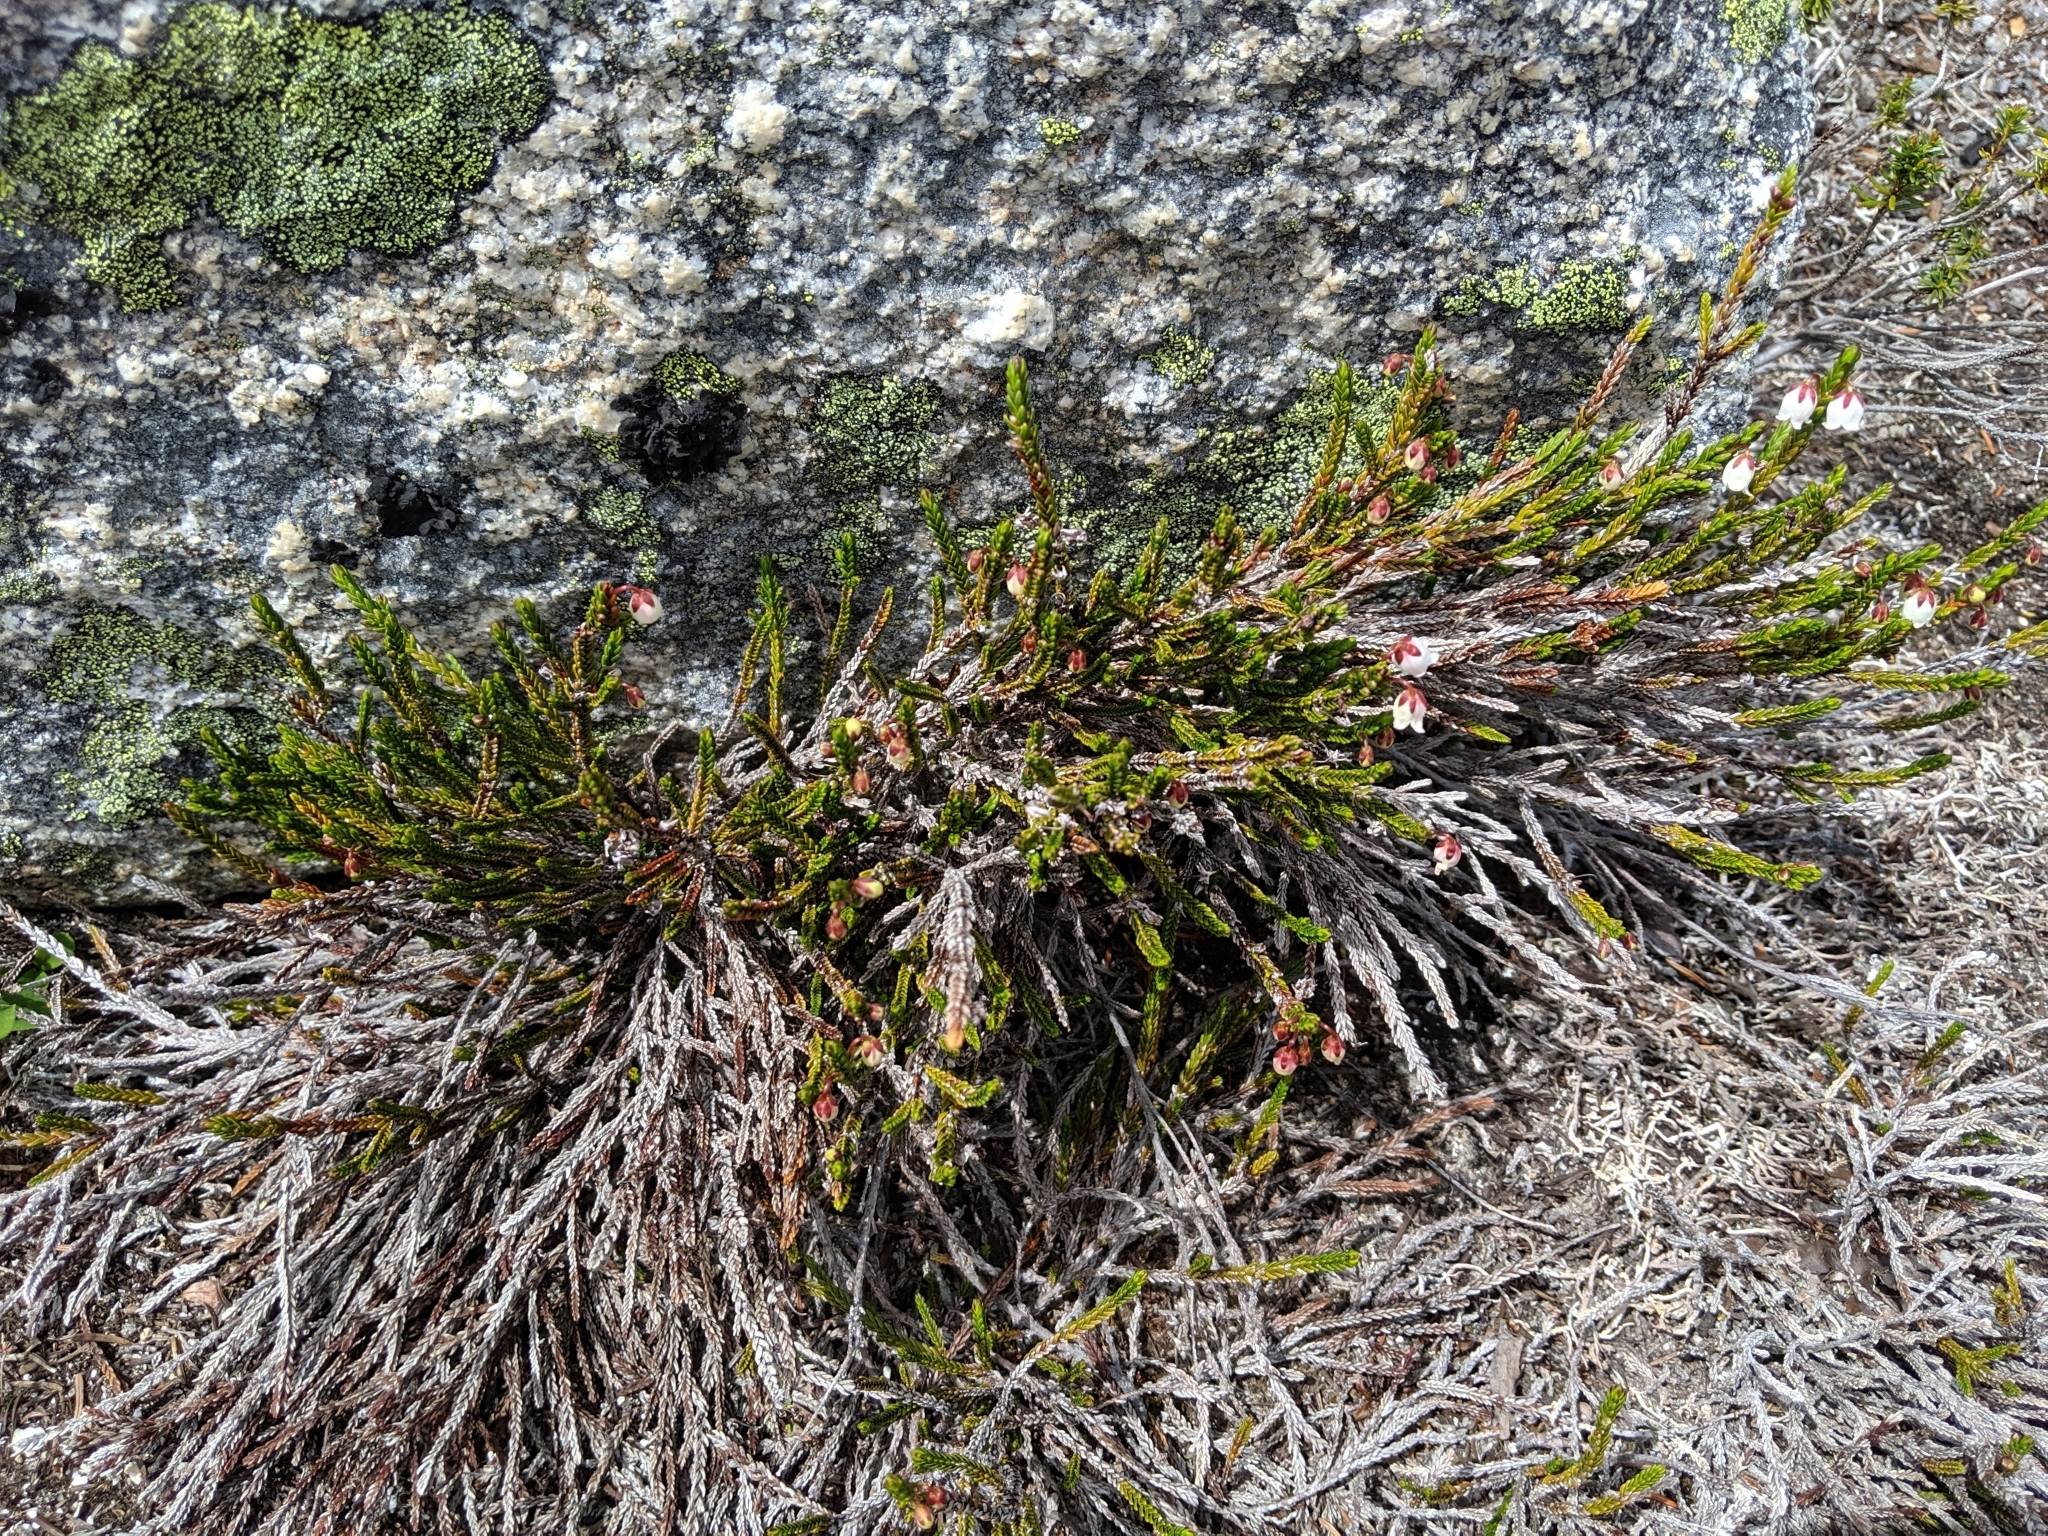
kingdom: Plantae
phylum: Tracheophyta
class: Magnoliopsida
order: Ericales
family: Ericaceae
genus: Cassiope
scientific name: Cassiope mertensiana
